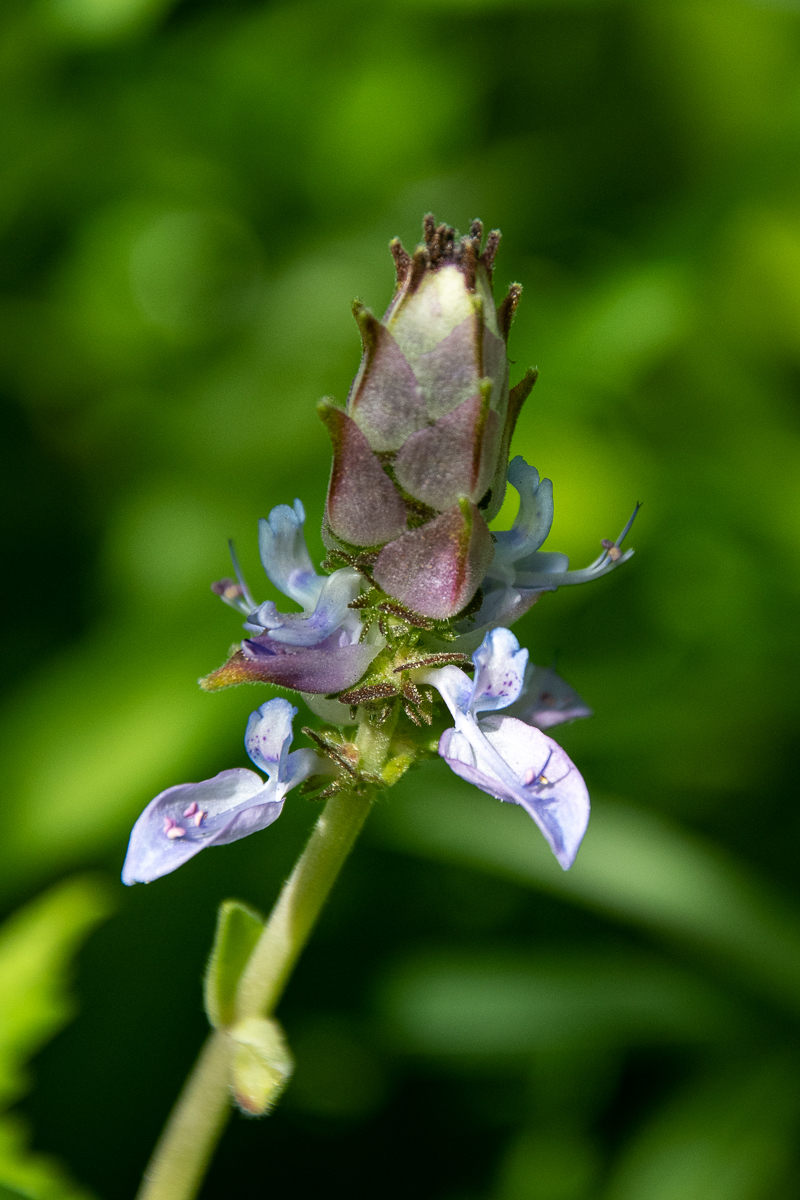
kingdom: Plantae
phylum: Tracheophyta
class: Magnoliopsida
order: Lamiales
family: Lamiaceae
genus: Coleus
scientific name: Coleus neochilus
